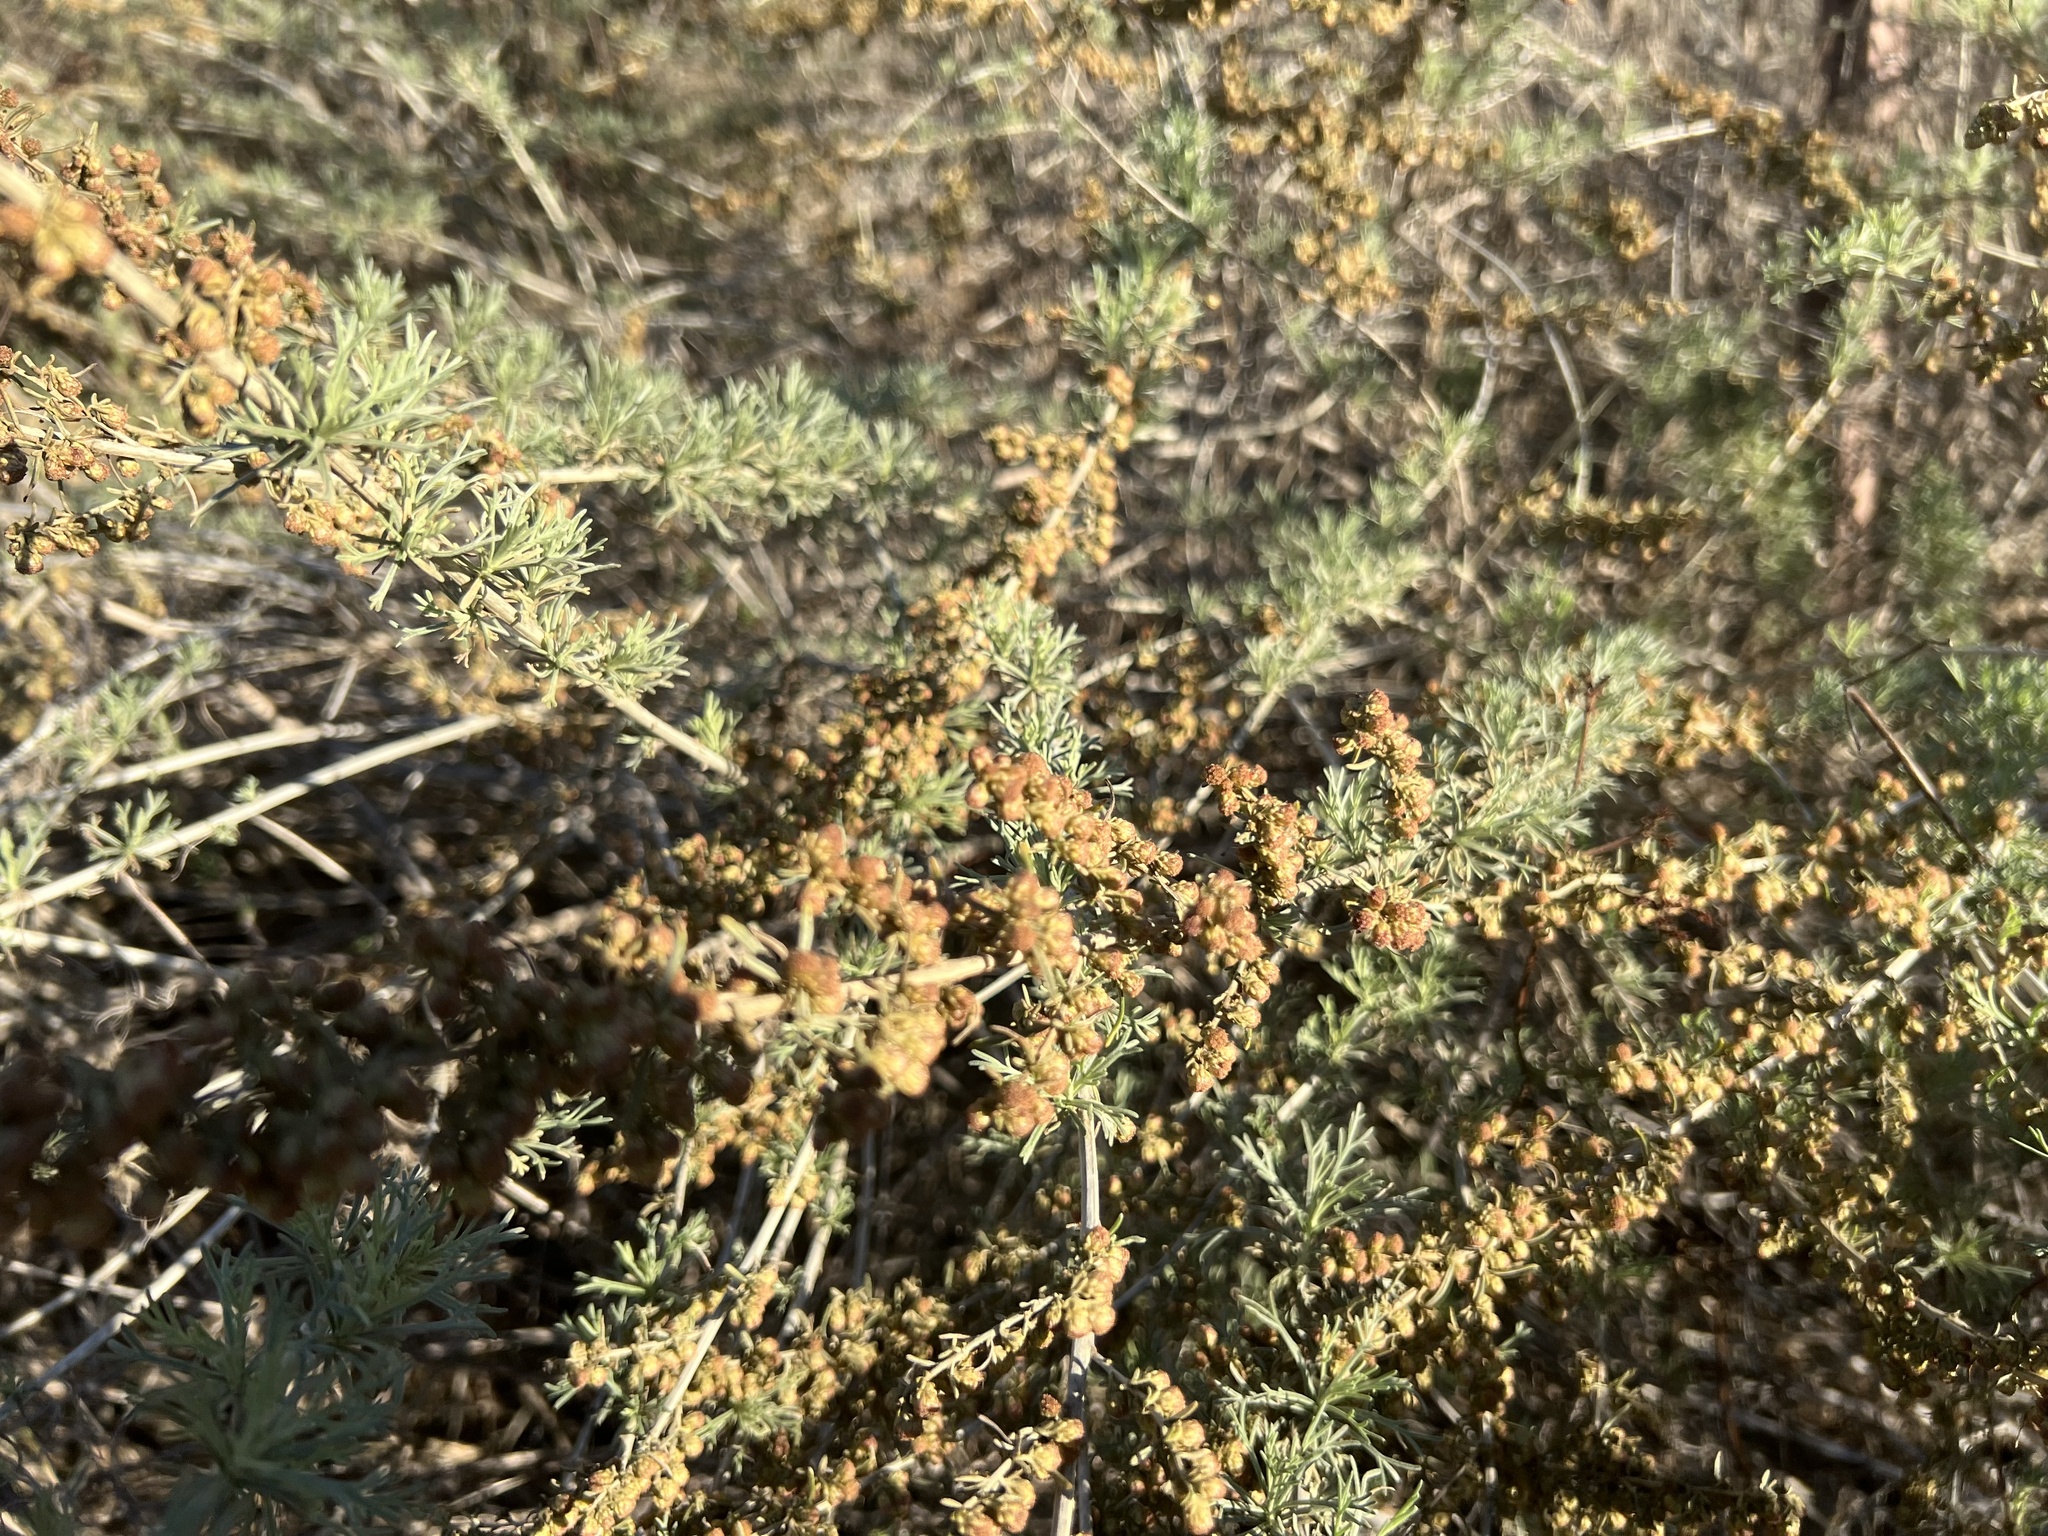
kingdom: Plantae
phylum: Tracheophyta
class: Magnoliopsida
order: Asterales
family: Asteraceae
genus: Artemisia
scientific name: Artemisia californica
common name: California sagebrush
